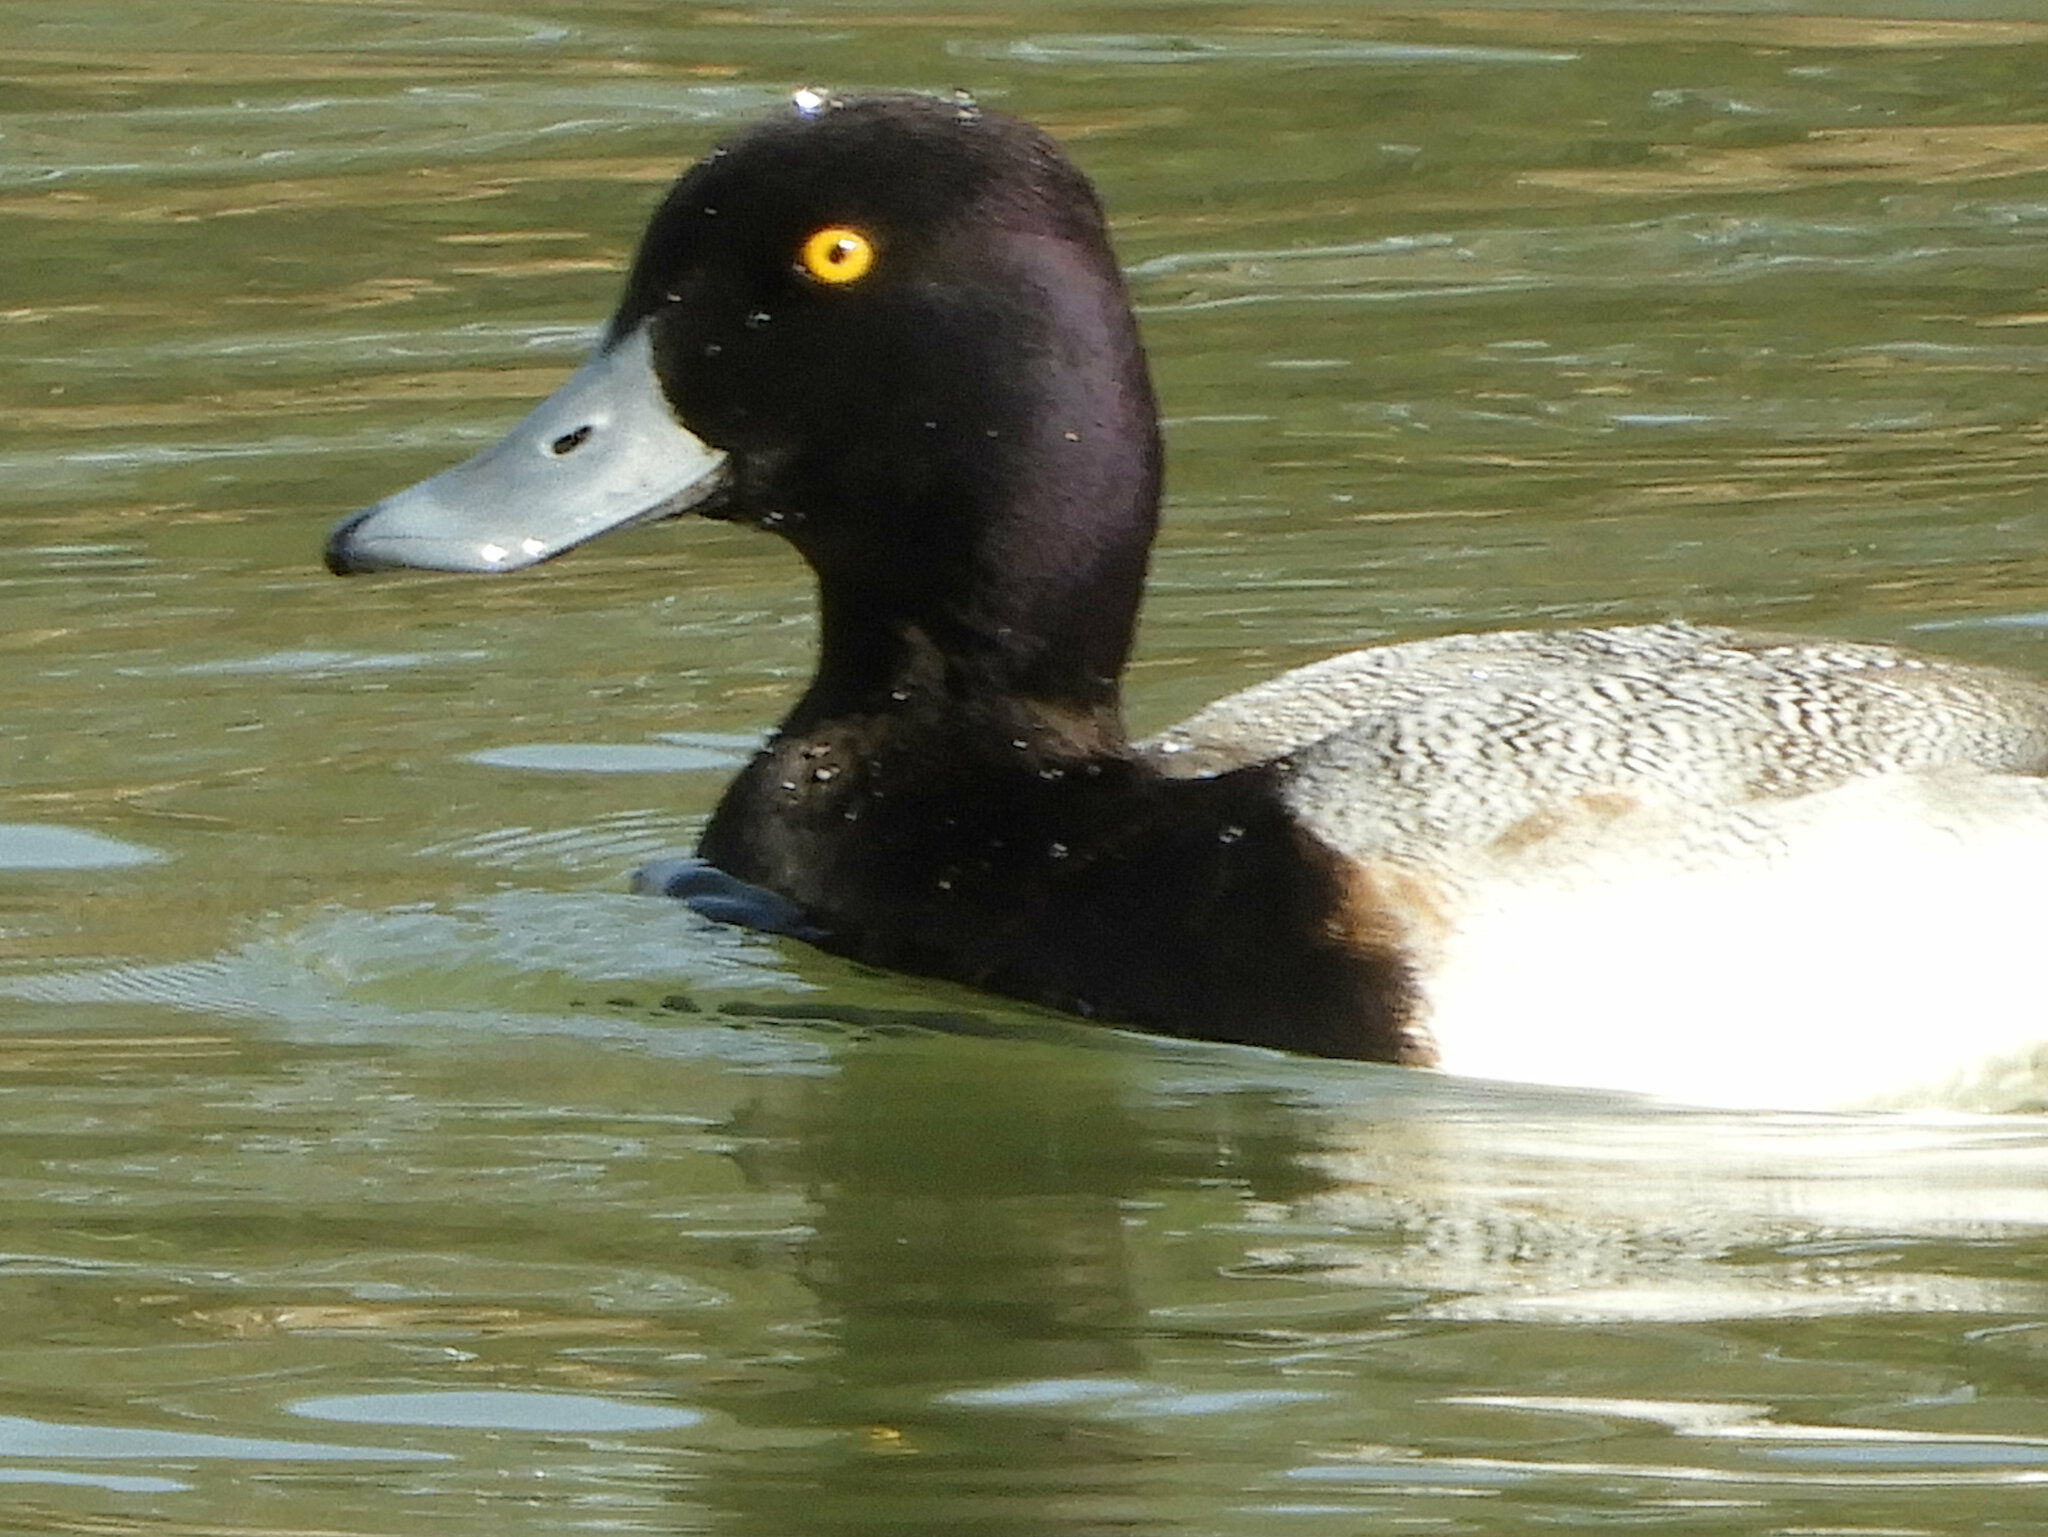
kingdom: Animalia
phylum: Chordata
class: Aves
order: Anseriformes
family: Anatidae
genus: Aythya
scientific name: Aythya affinis
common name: Lesser scaup
